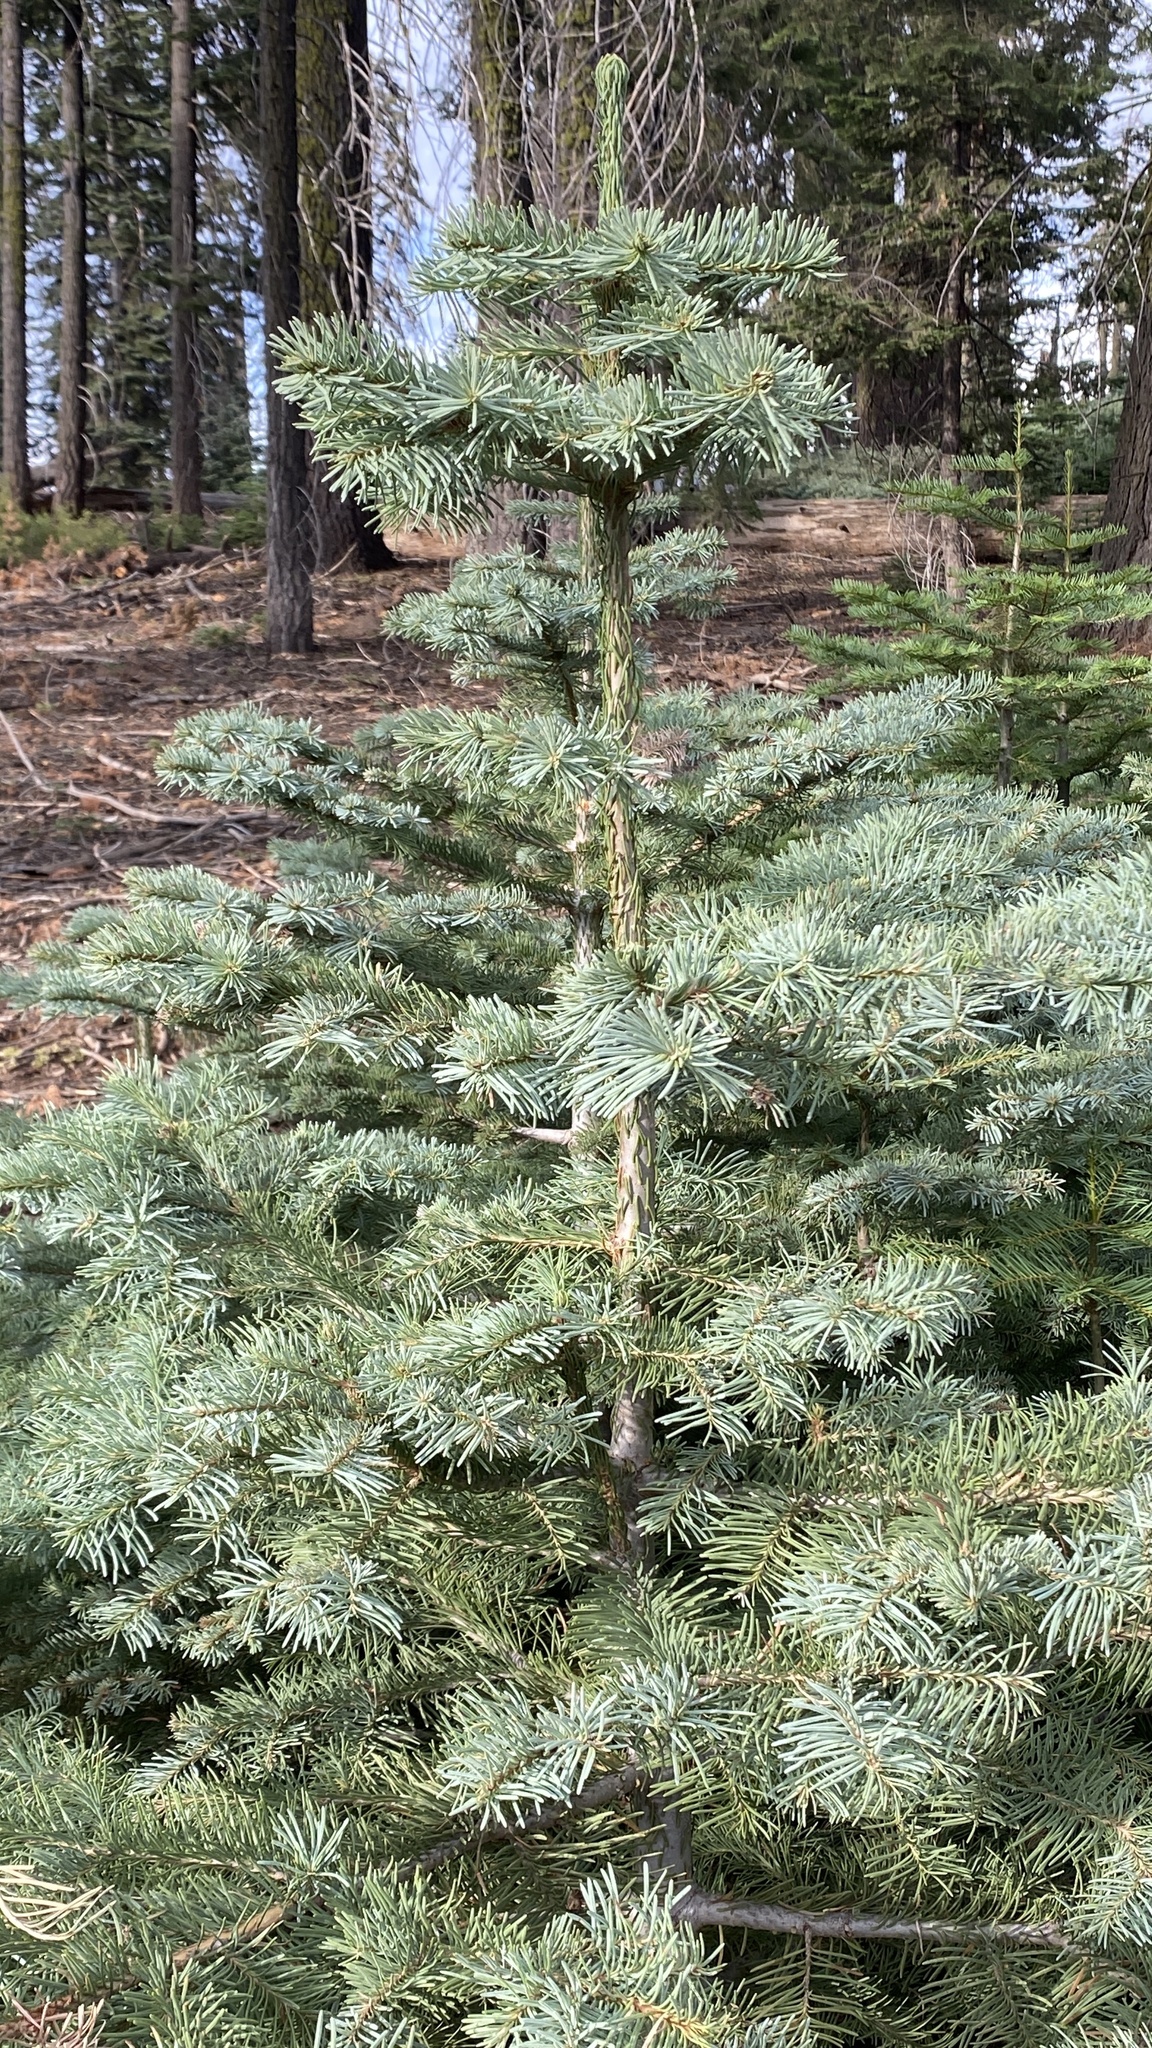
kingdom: Plantae
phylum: Tracheophyta
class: Pinopsida
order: Pinales
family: Pinaceae
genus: Abies
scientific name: Abies magnifica bis
